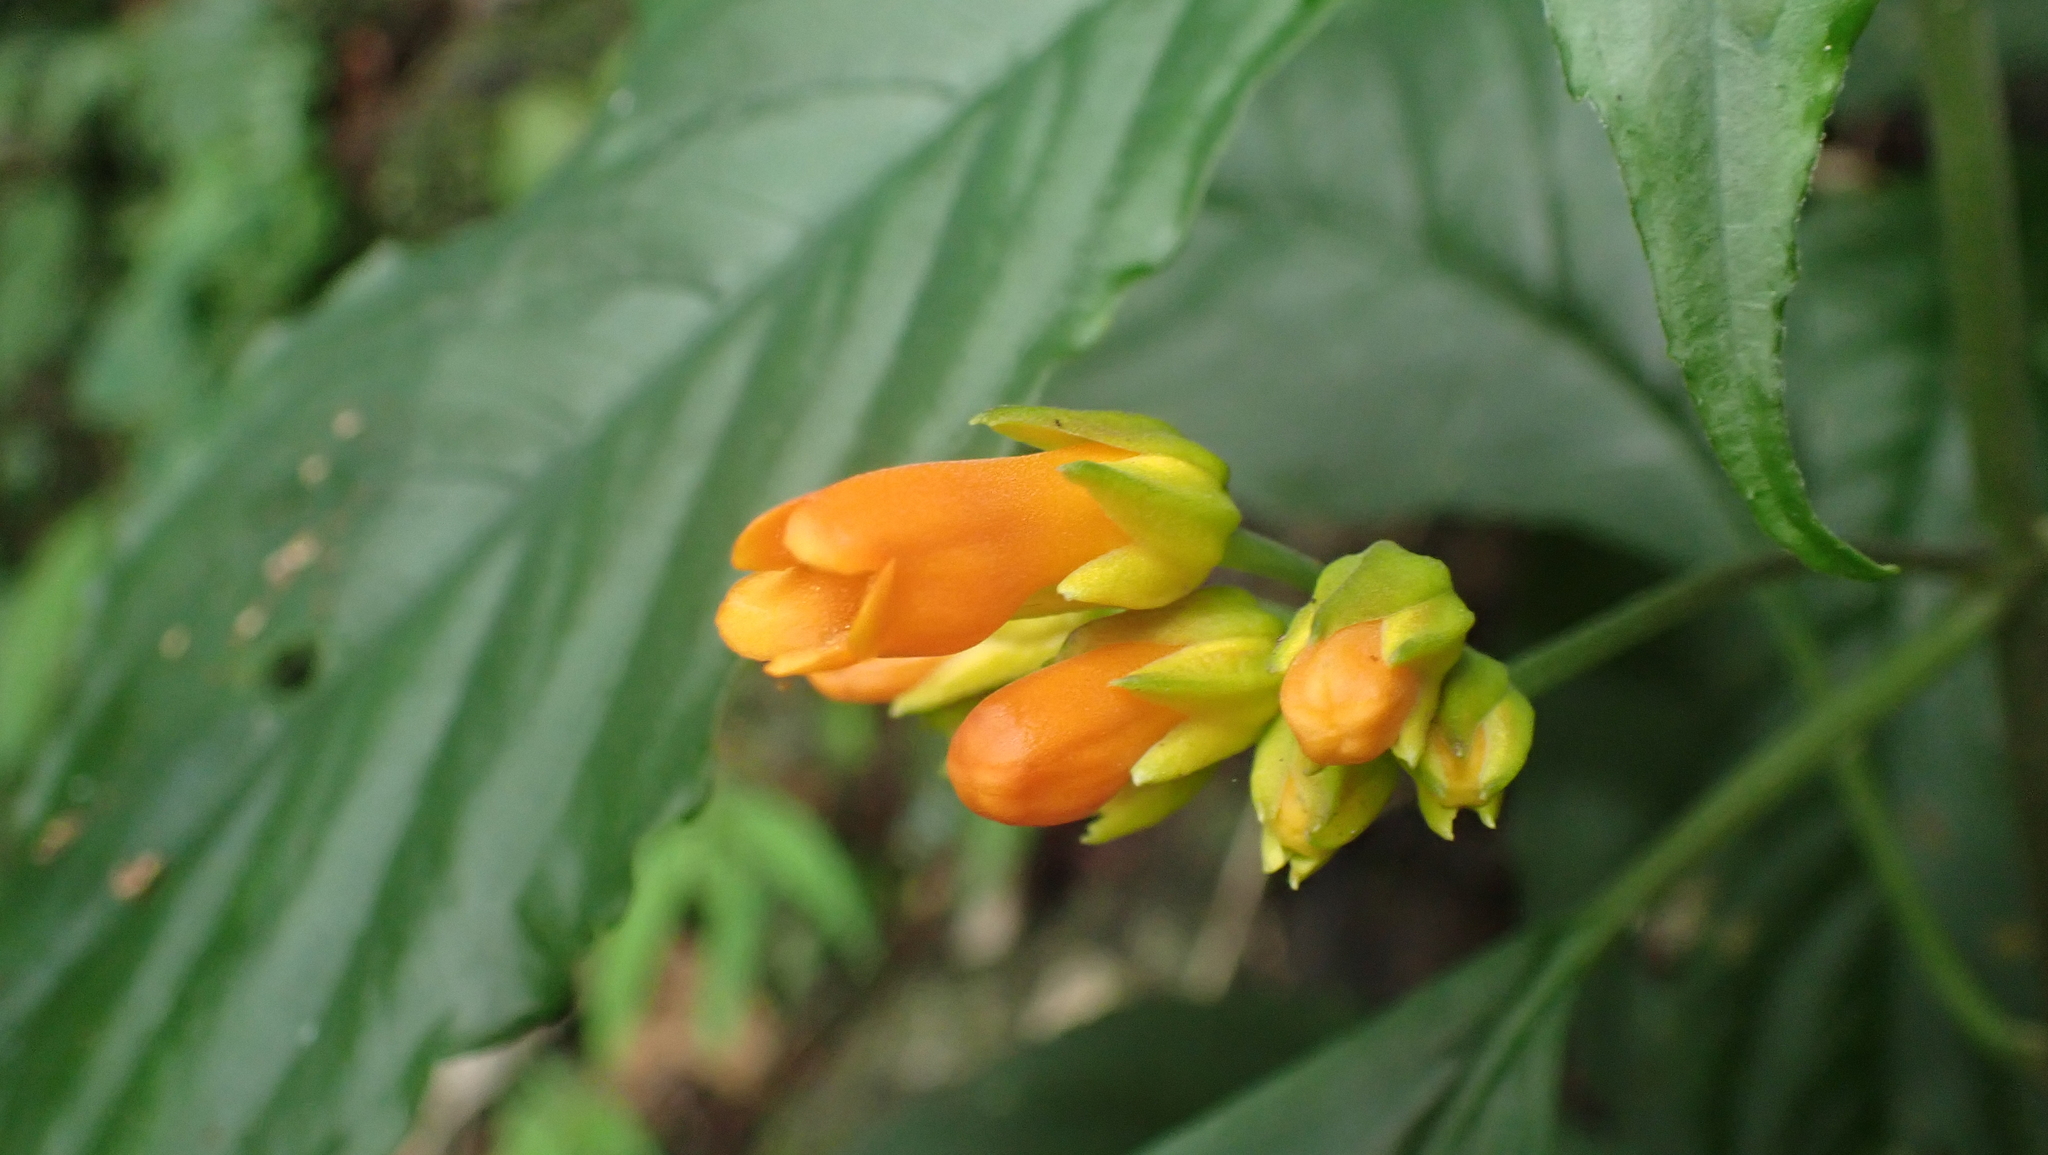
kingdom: Plantae
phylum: Tracheophyta
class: Magnoliopsida
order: Lamiales
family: Gesneriaceae
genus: Besleria
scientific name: Besleria laxiflora
